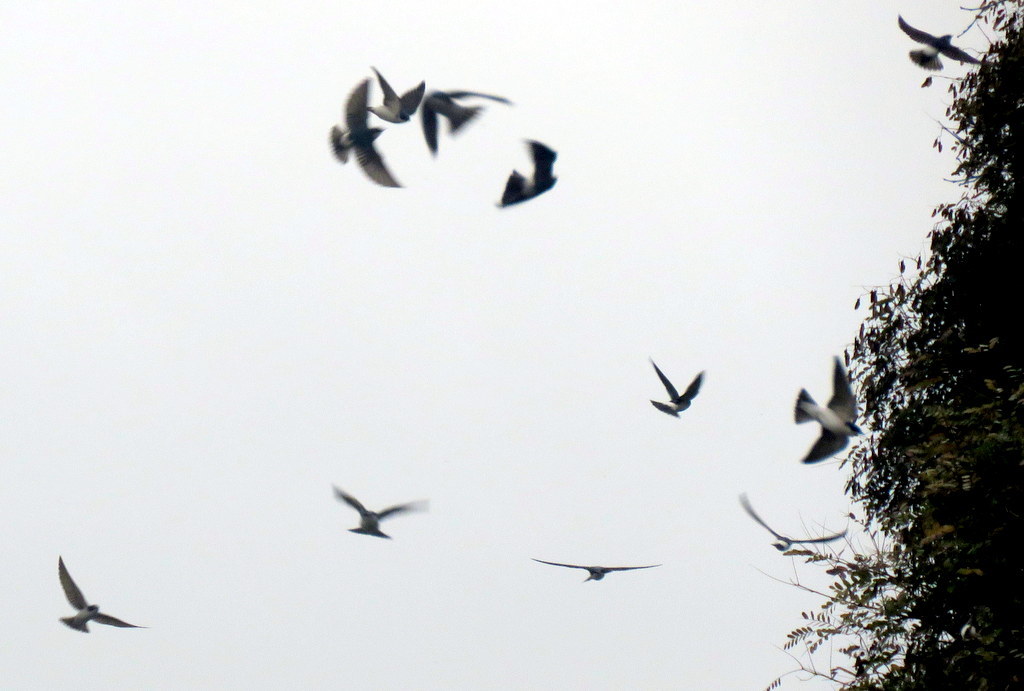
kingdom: Animalia
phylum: Chordata
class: Aves
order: Passeriformes
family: Hirundinidae
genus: Tachycineta
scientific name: Tachycineta leucorrhoa
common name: White-rumped swallow
